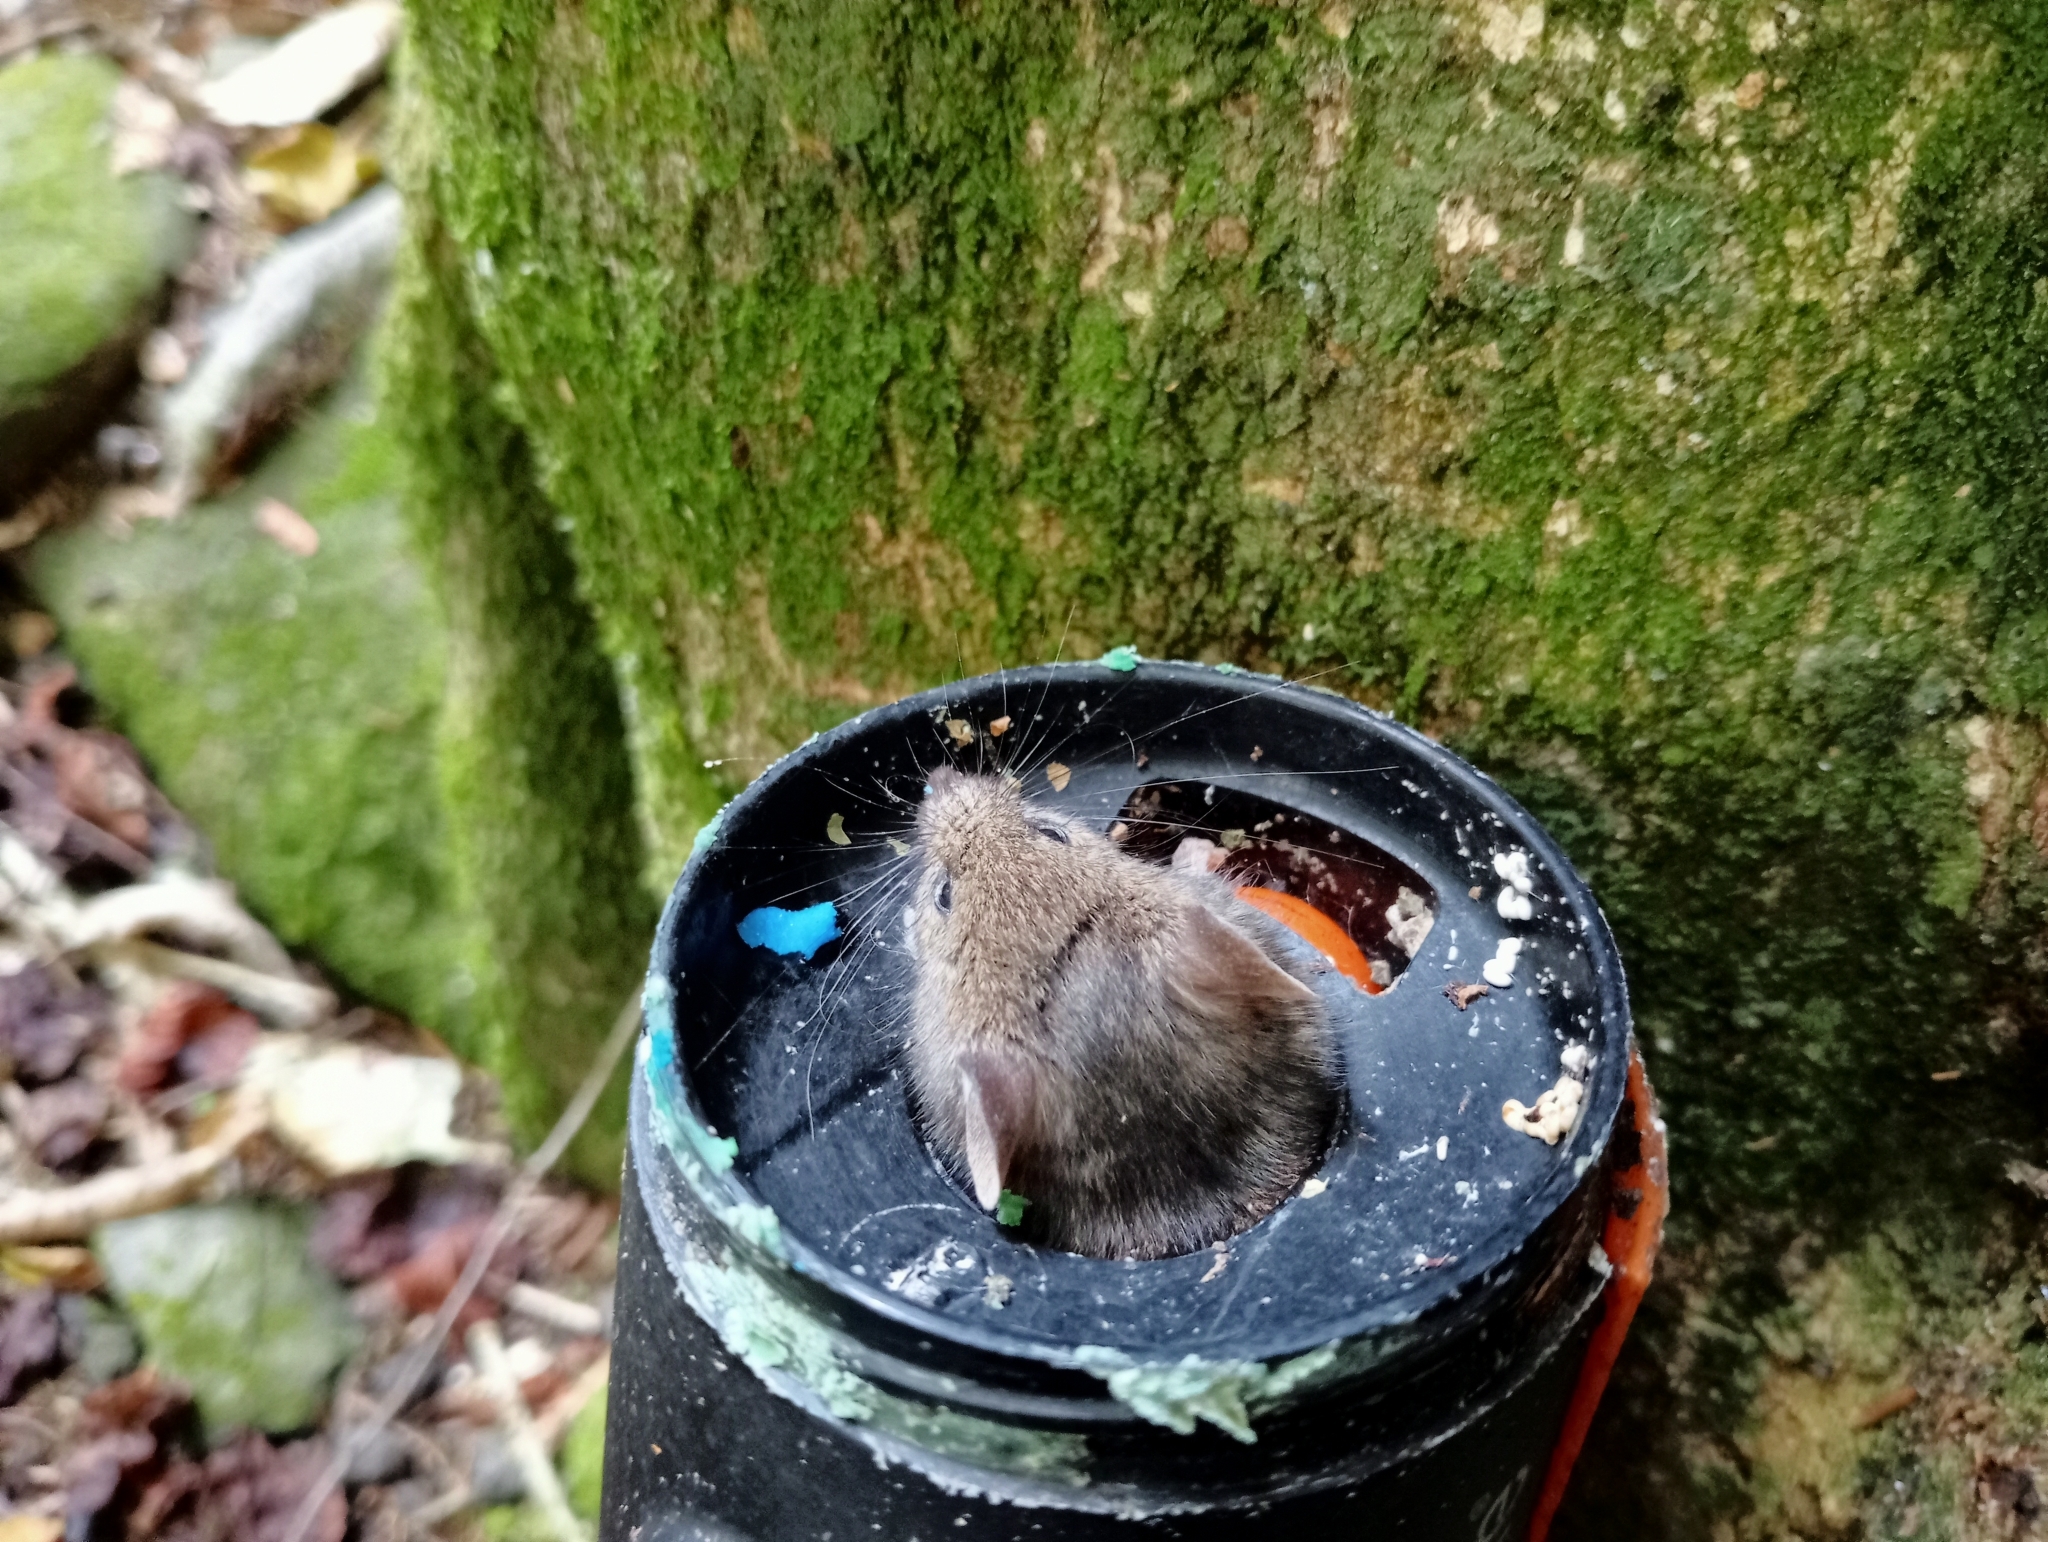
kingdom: Animalia
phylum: Chordata
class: Mammalia
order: Rodentia
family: Muridae
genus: Mus
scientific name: Mus musculus
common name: House mouse
